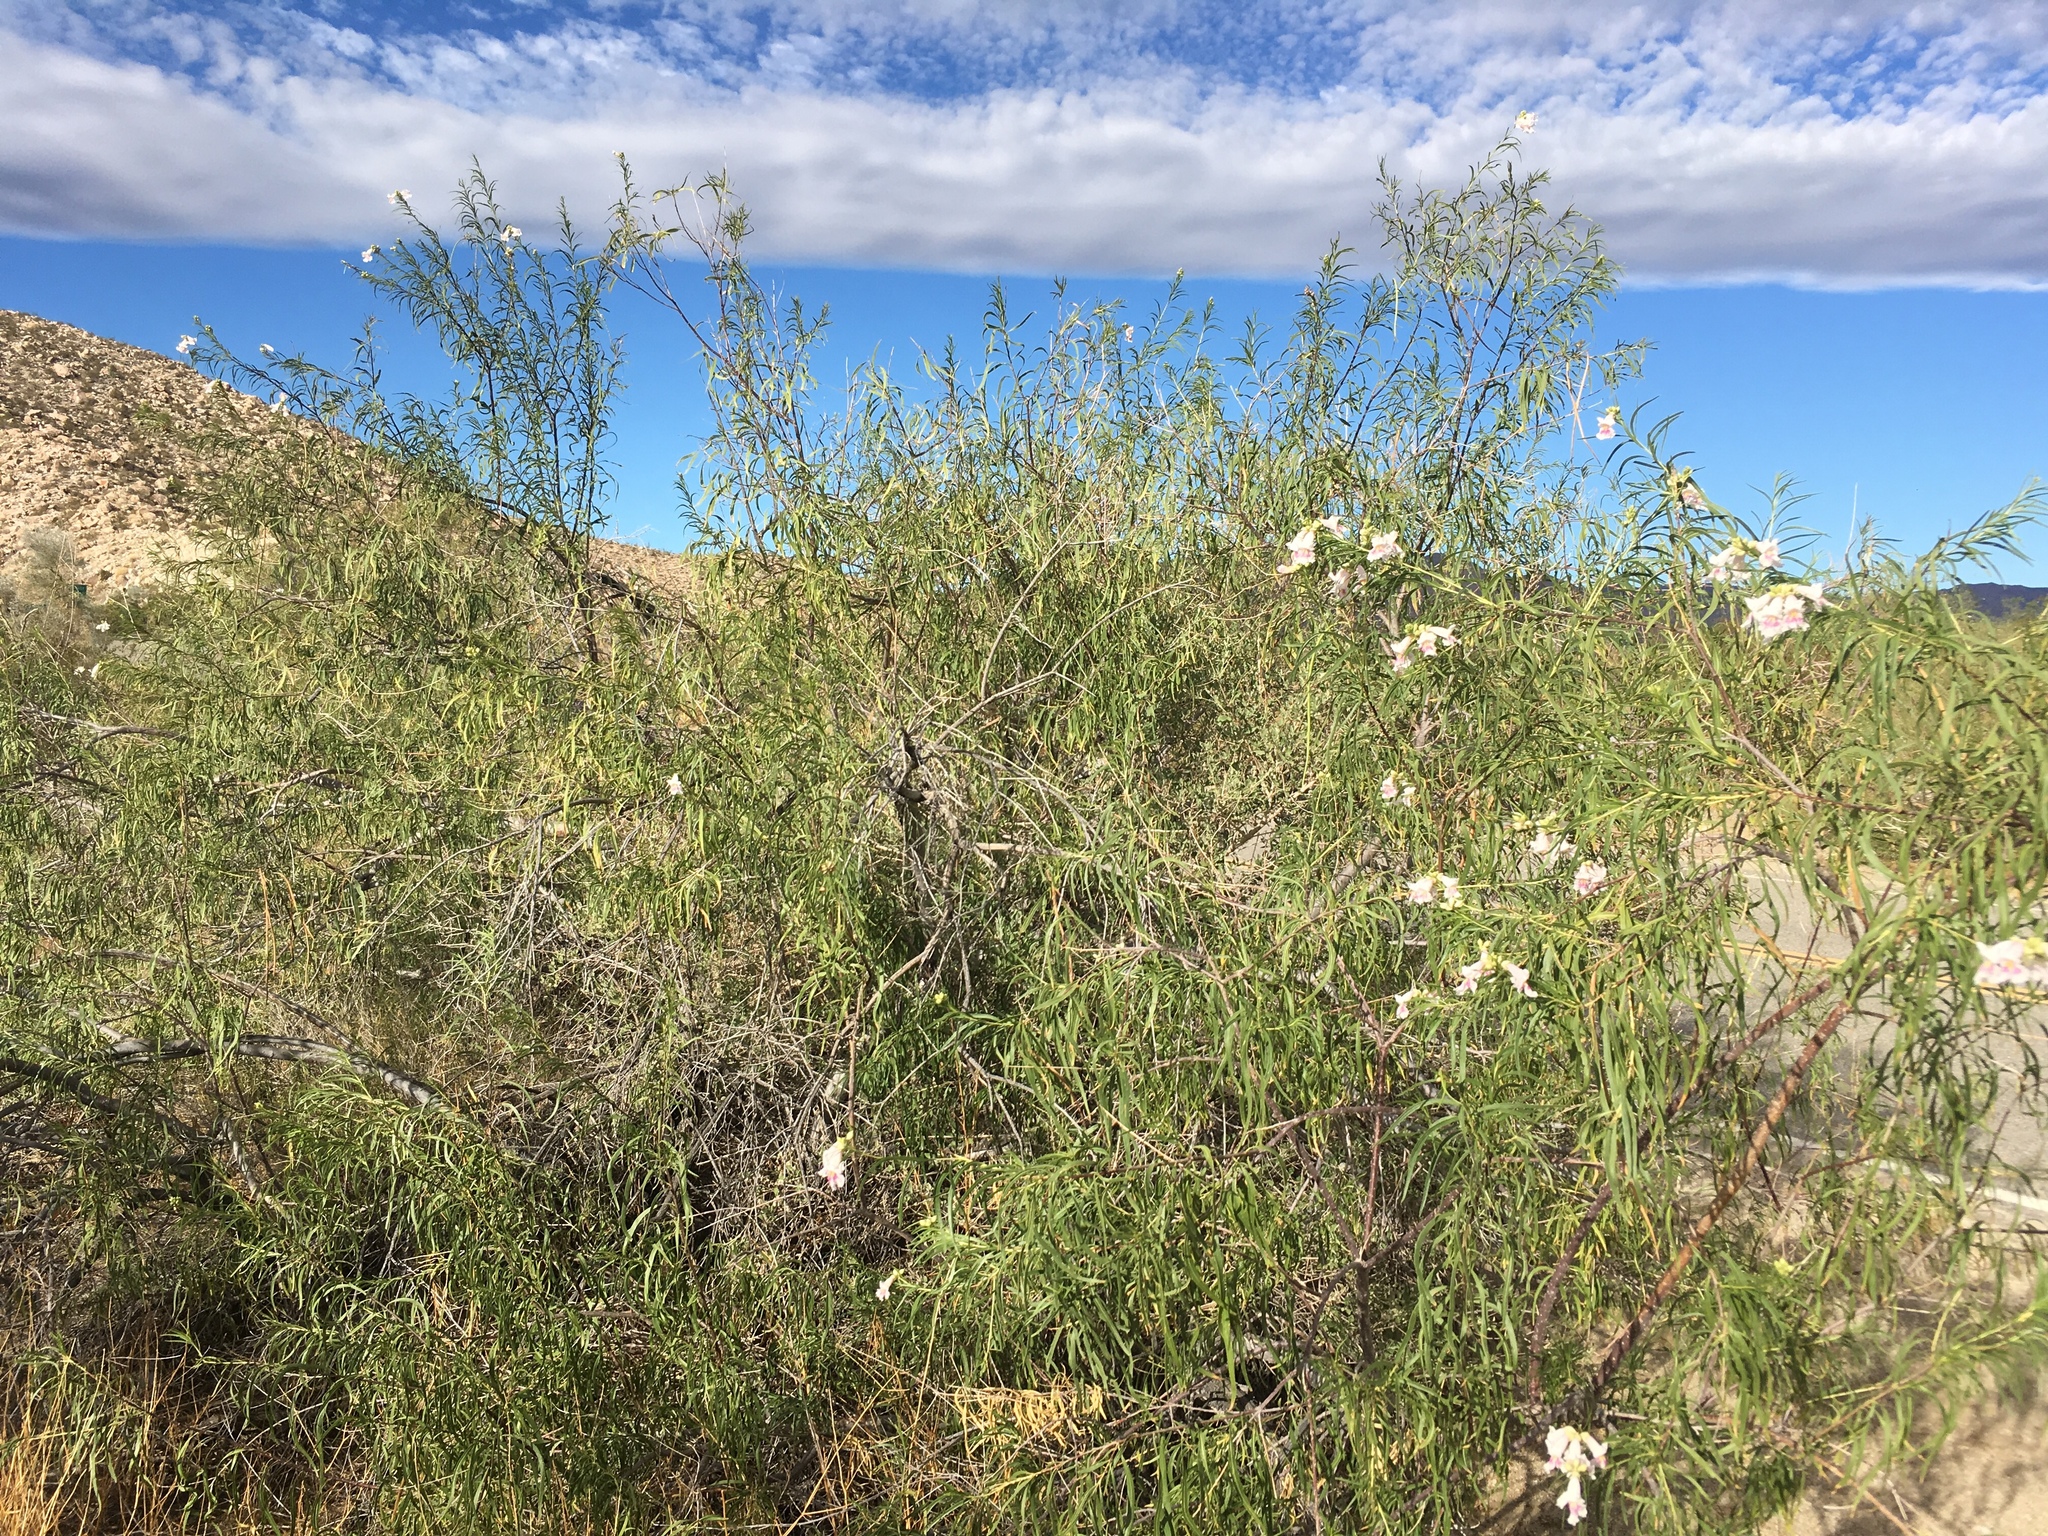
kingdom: Plantae
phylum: Tracheophyta
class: Magnoliopsida
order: Lamiales
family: Bignoniaceae
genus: Chilopsis
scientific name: Chilopsis linearis
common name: Desert-willow
